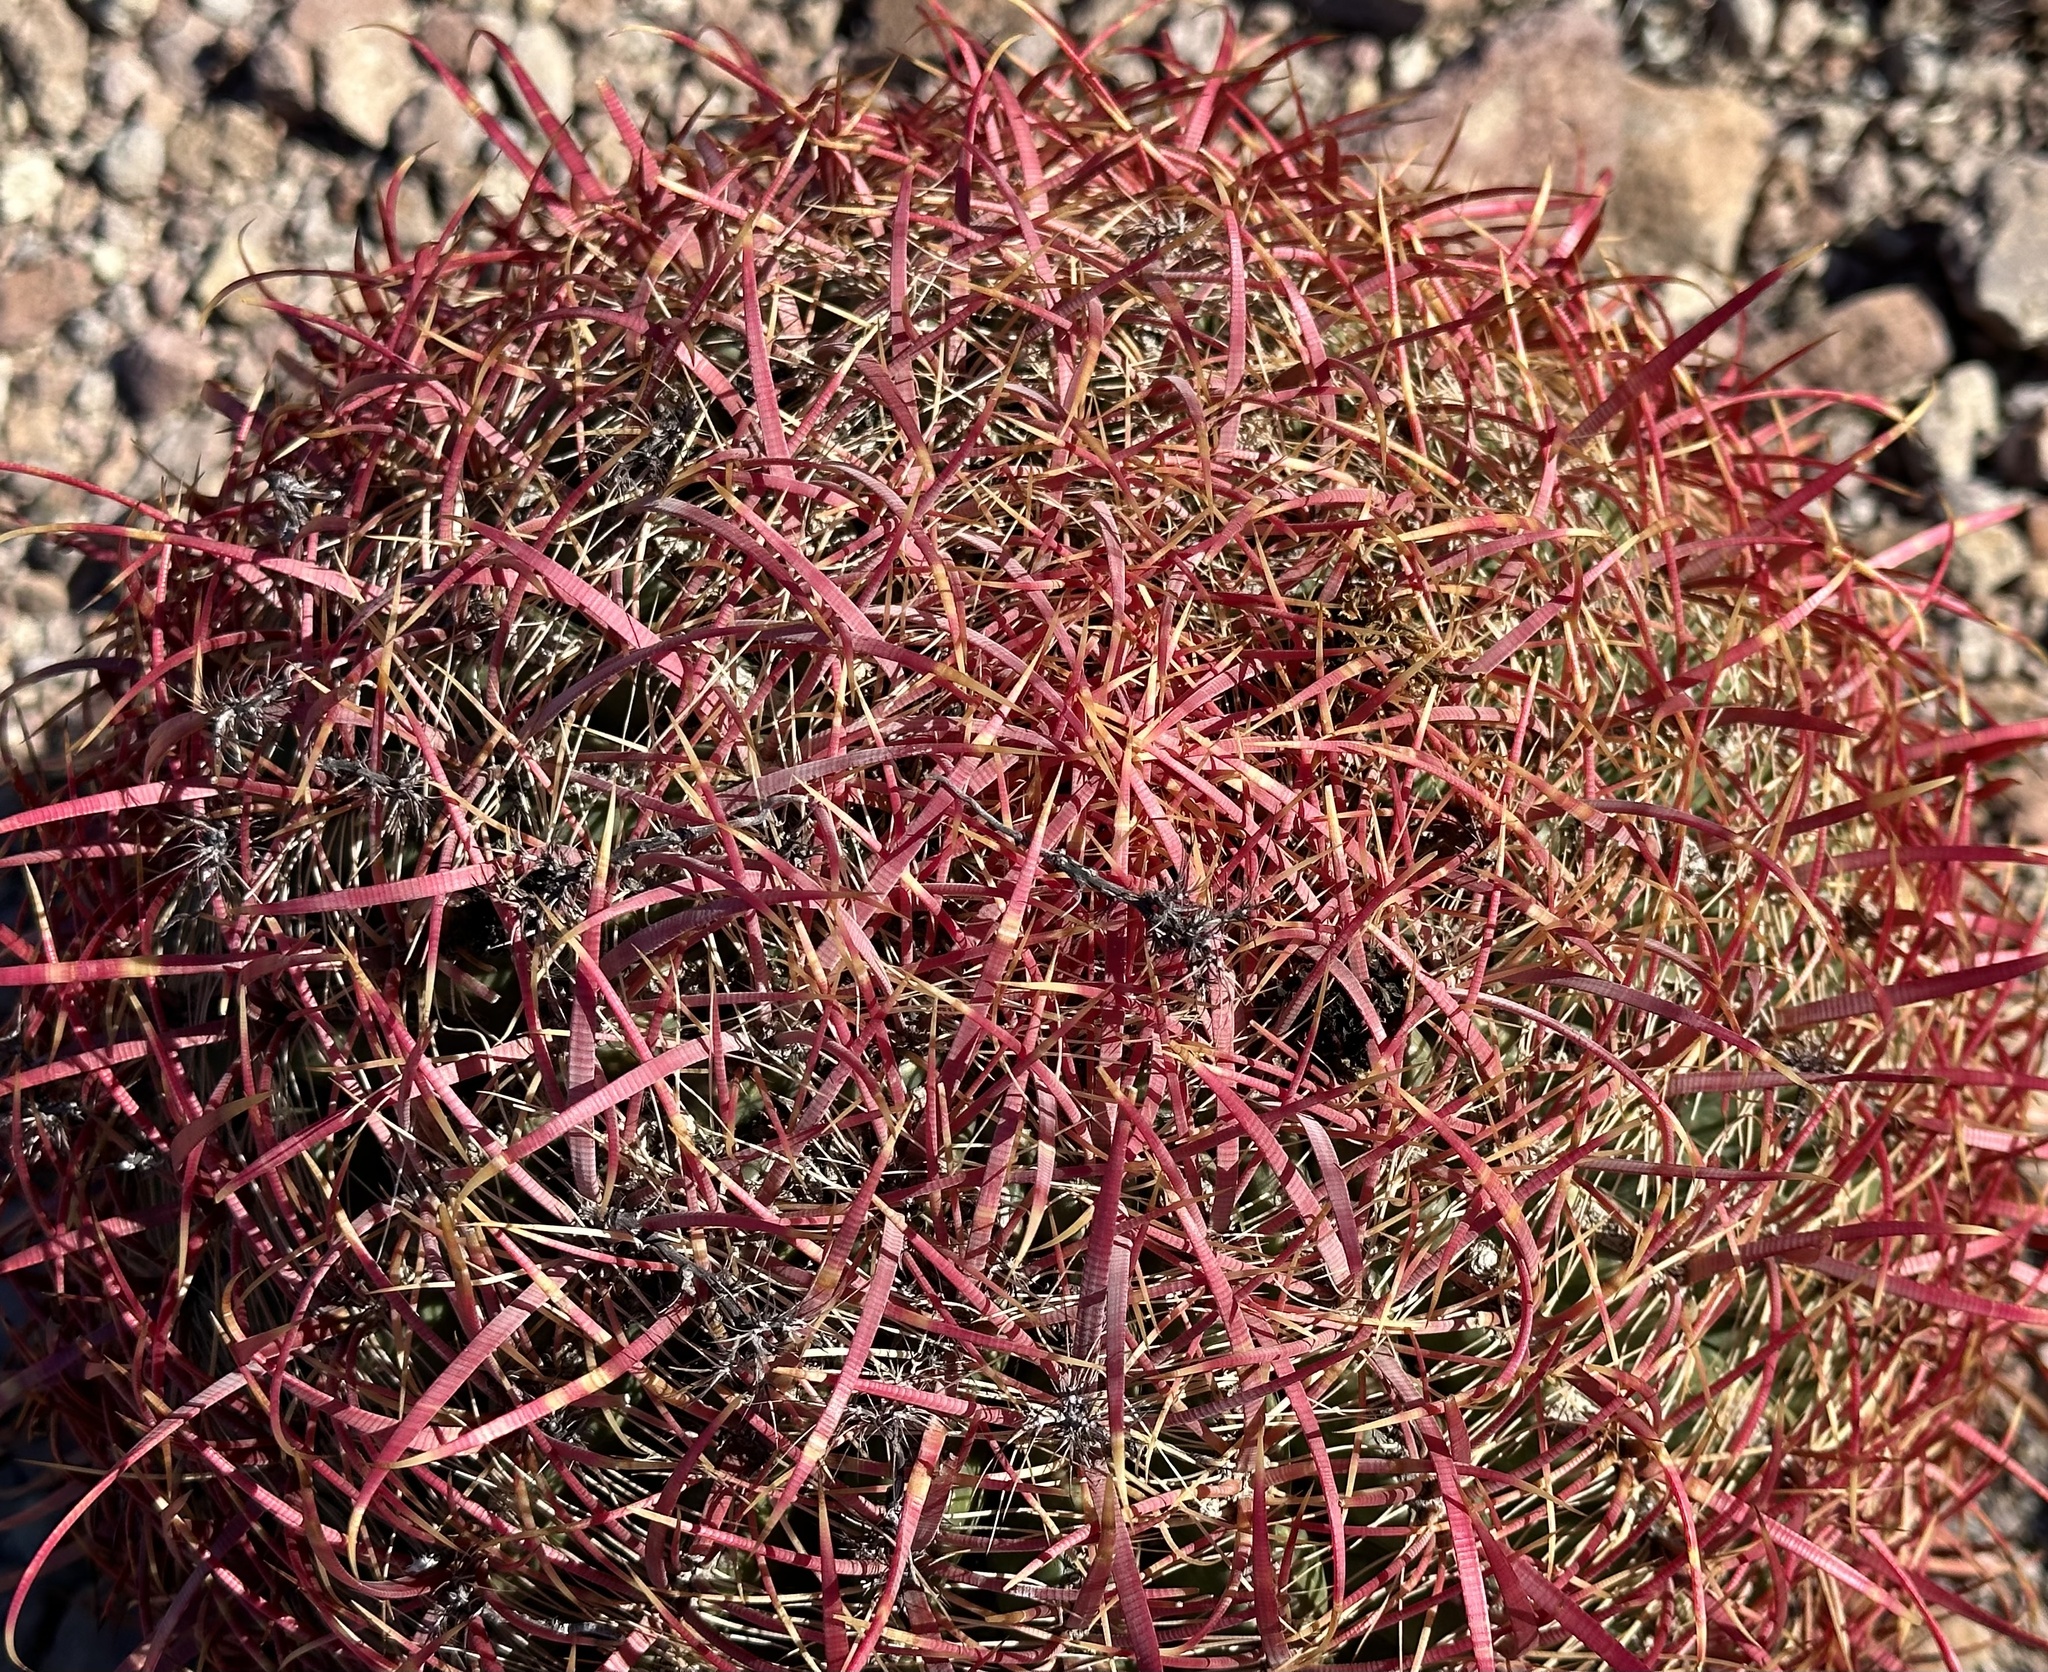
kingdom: Plantae
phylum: Tracheophyta
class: Magnoliopsida
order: Caryophyllales
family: Cactaceae
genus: Ferocactus
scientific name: Ferocactus cylindraceus
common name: California barrel cactus
